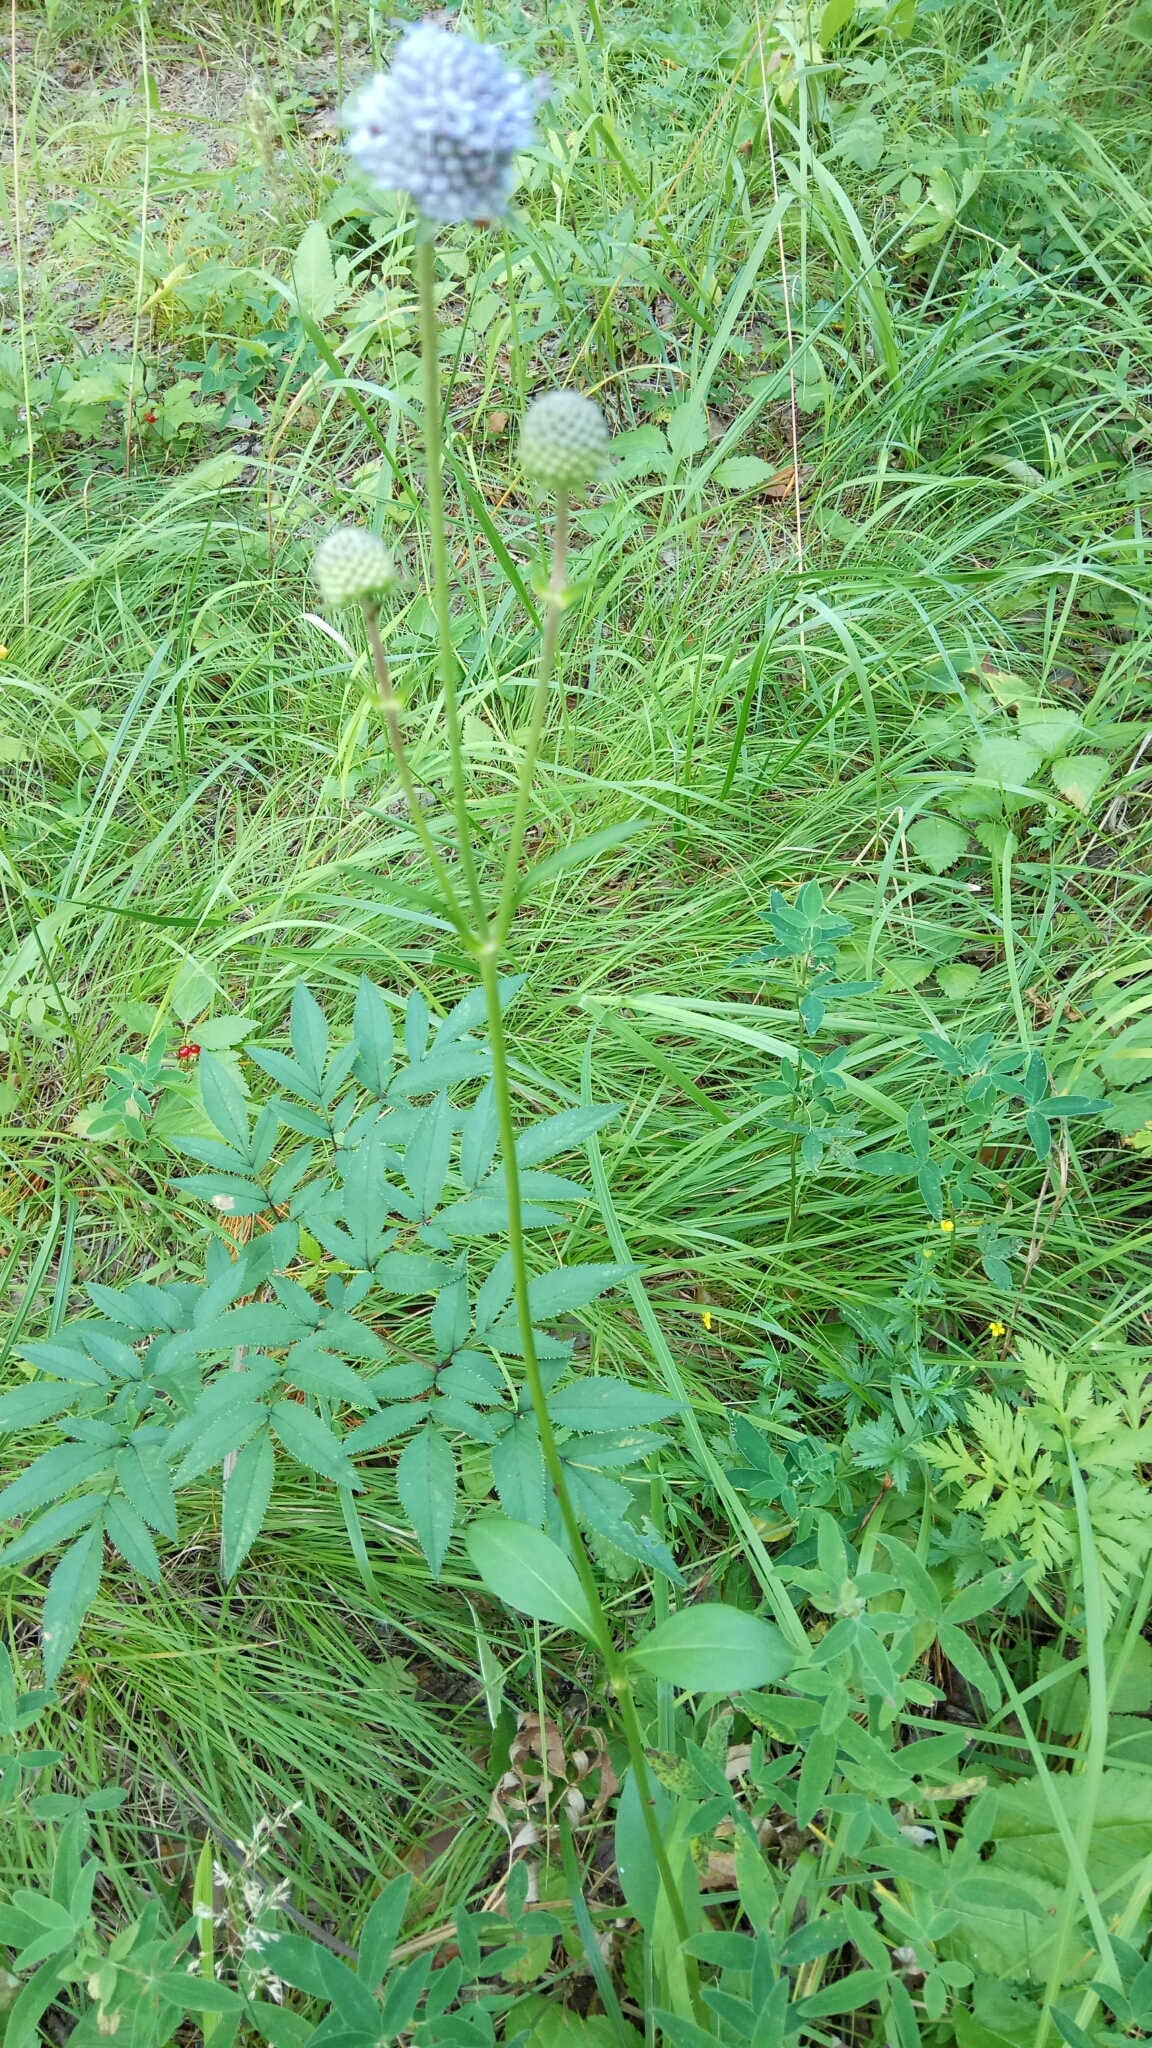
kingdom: Plantae
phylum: Tracheophyta
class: Magnoliopsida
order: Dipsacales
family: Caprifoliaceae
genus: Succisa
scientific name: Succisa pratensis
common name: Devil's-bit
